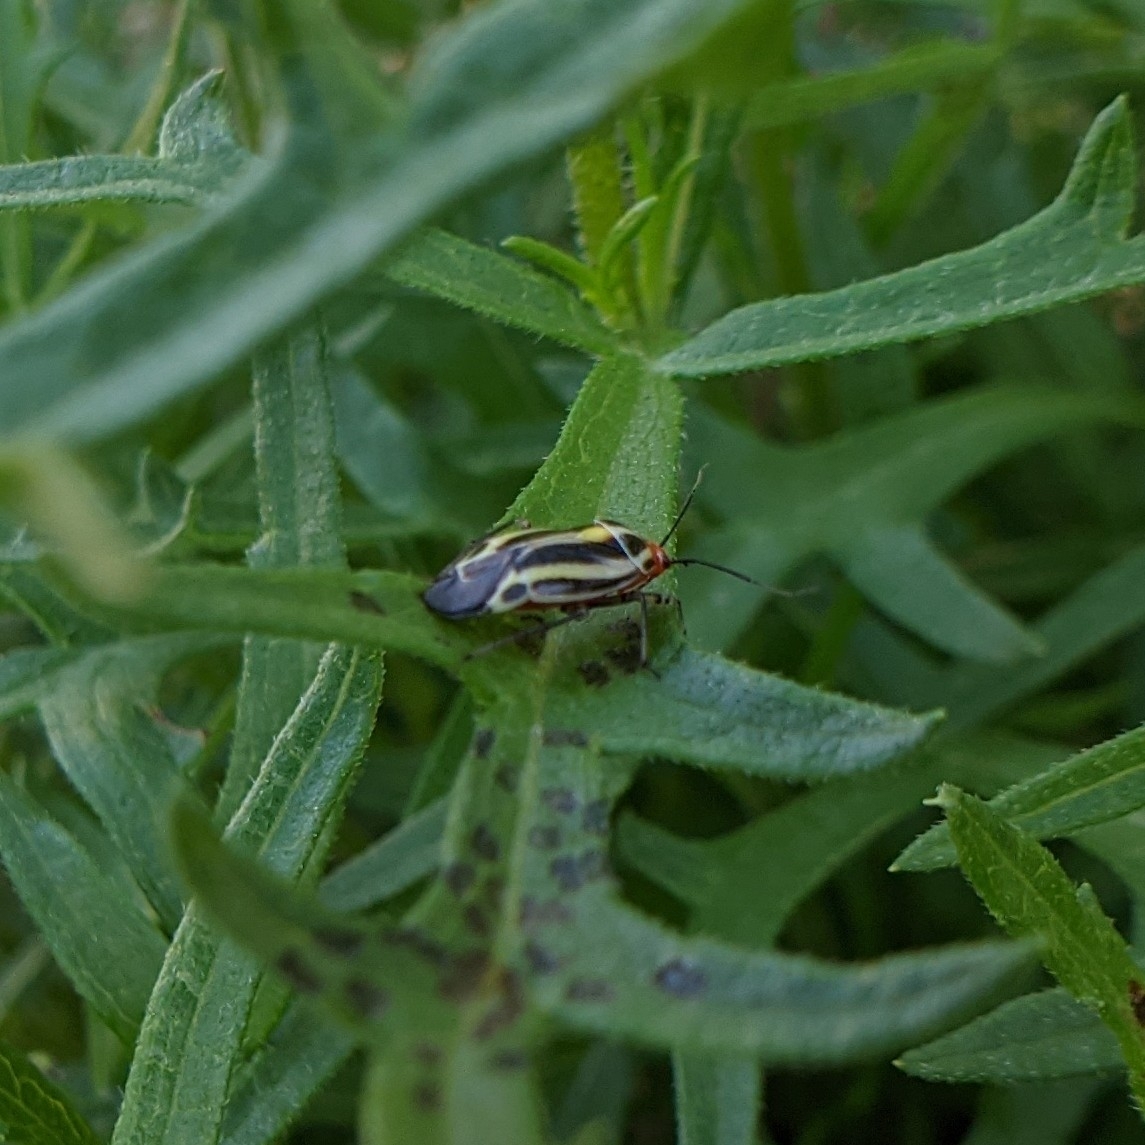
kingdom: Animalia
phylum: Arthropoda
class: Insecta
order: Hemiptera
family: Miridae
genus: Poecilocapsus
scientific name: Poecilocapsus lineatus
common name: Four-lined plant bug
